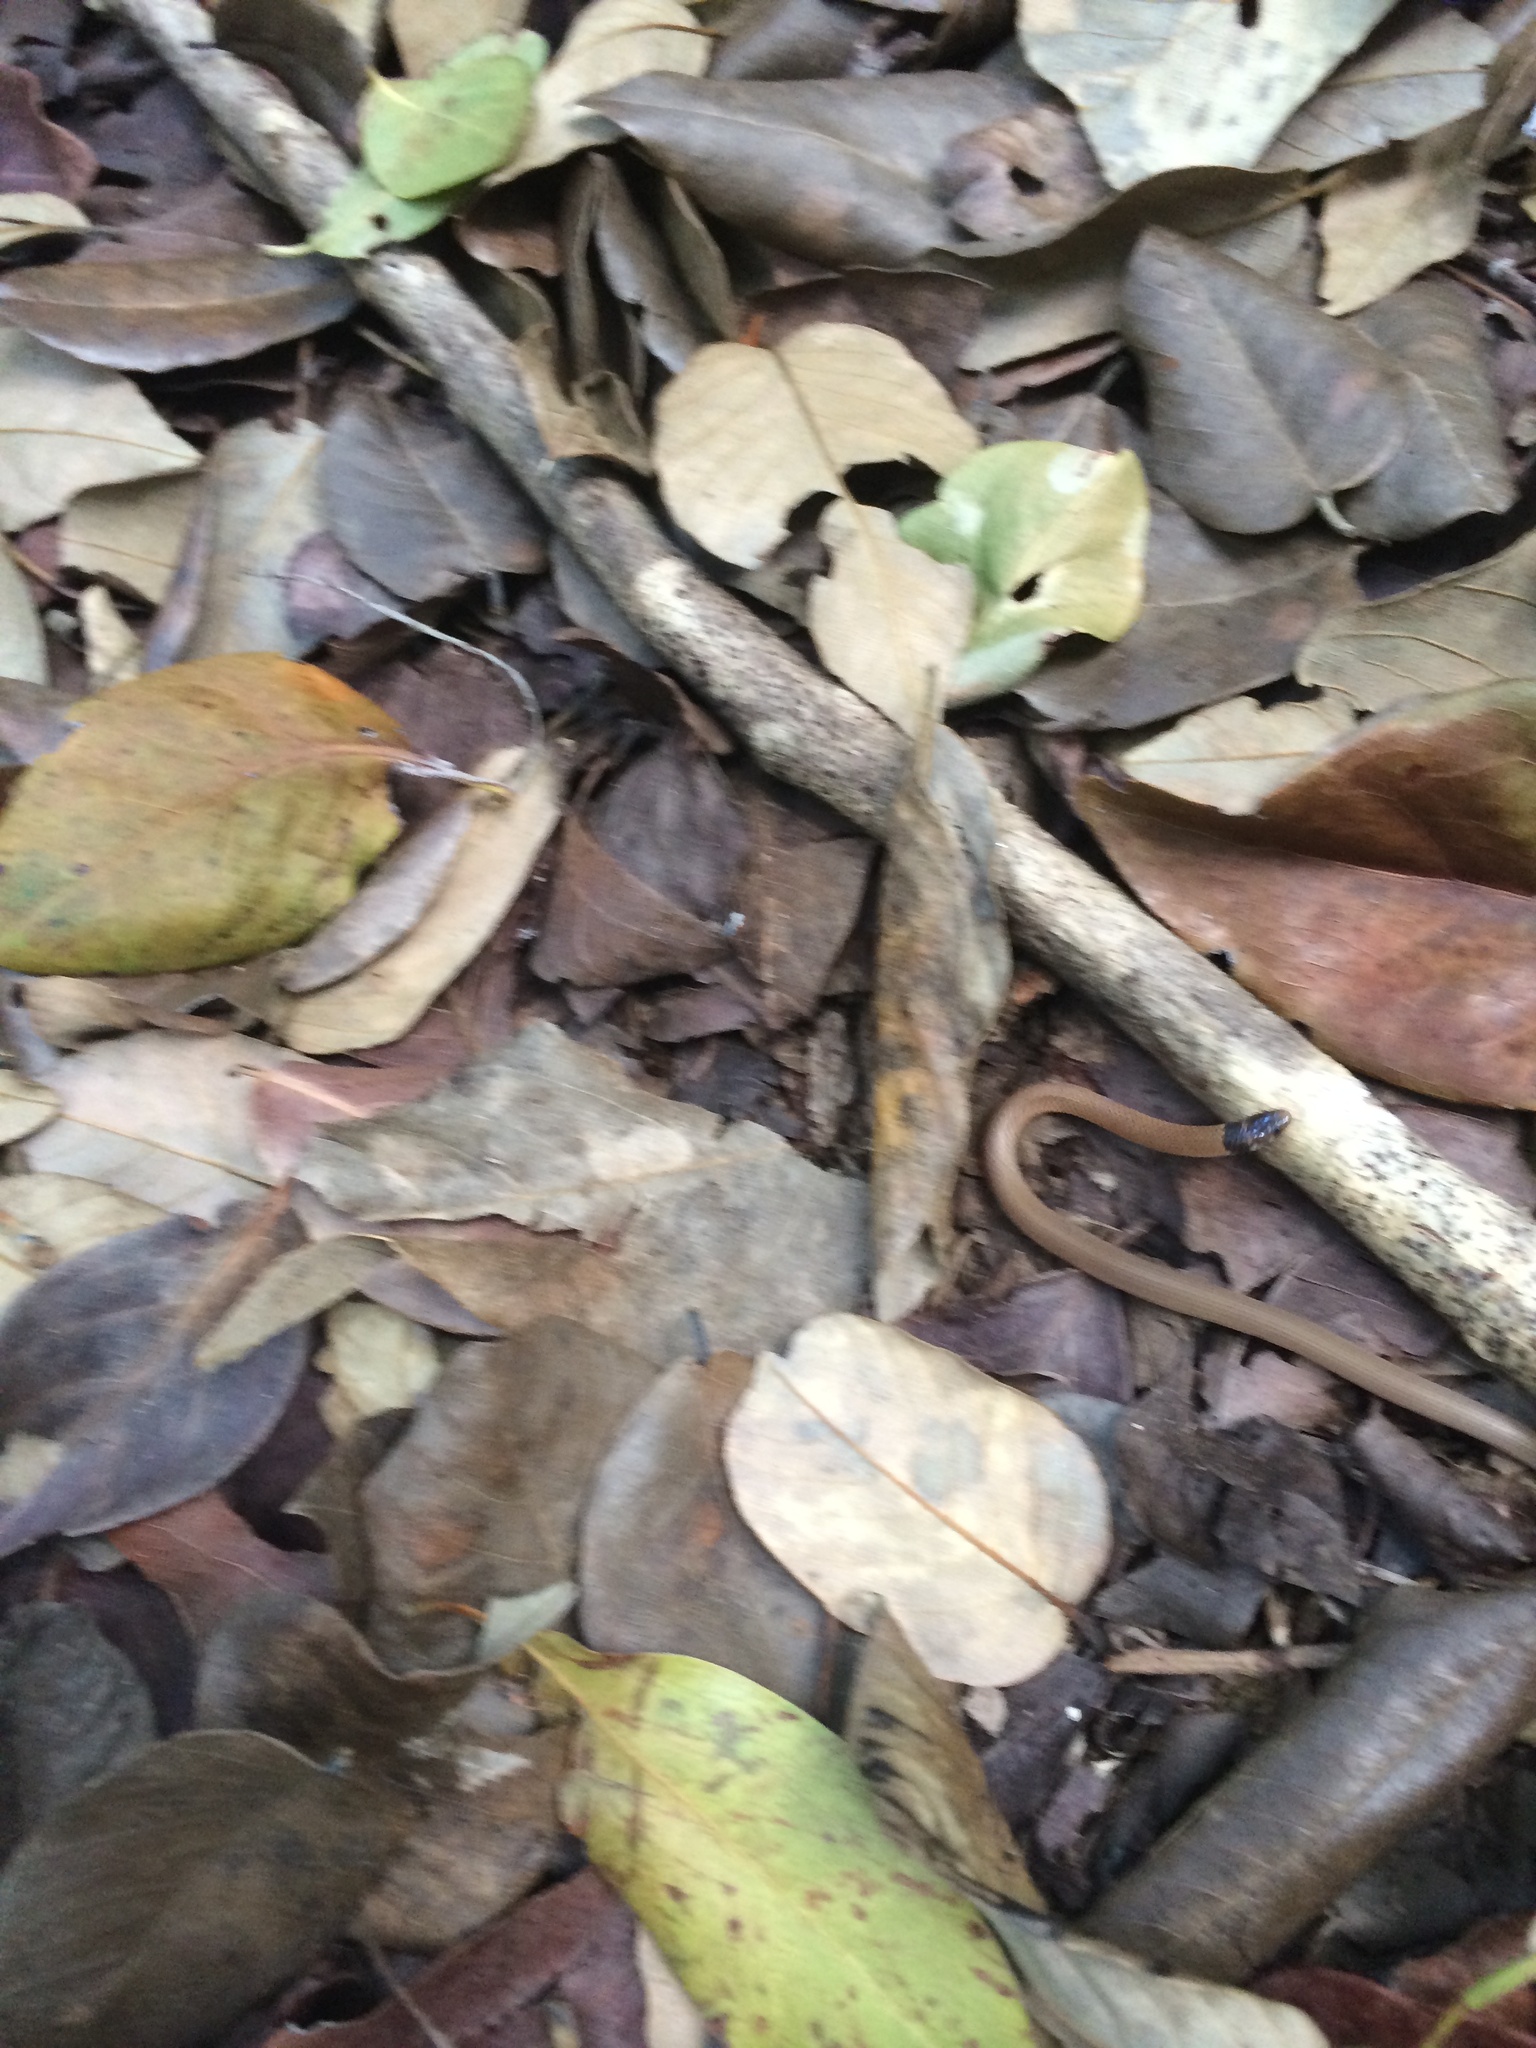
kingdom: Animalia
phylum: Chordata
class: Squamata
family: Colubridae
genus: Tantilla
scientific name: Tantilla oolitica
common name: Rim rock crowned snake
